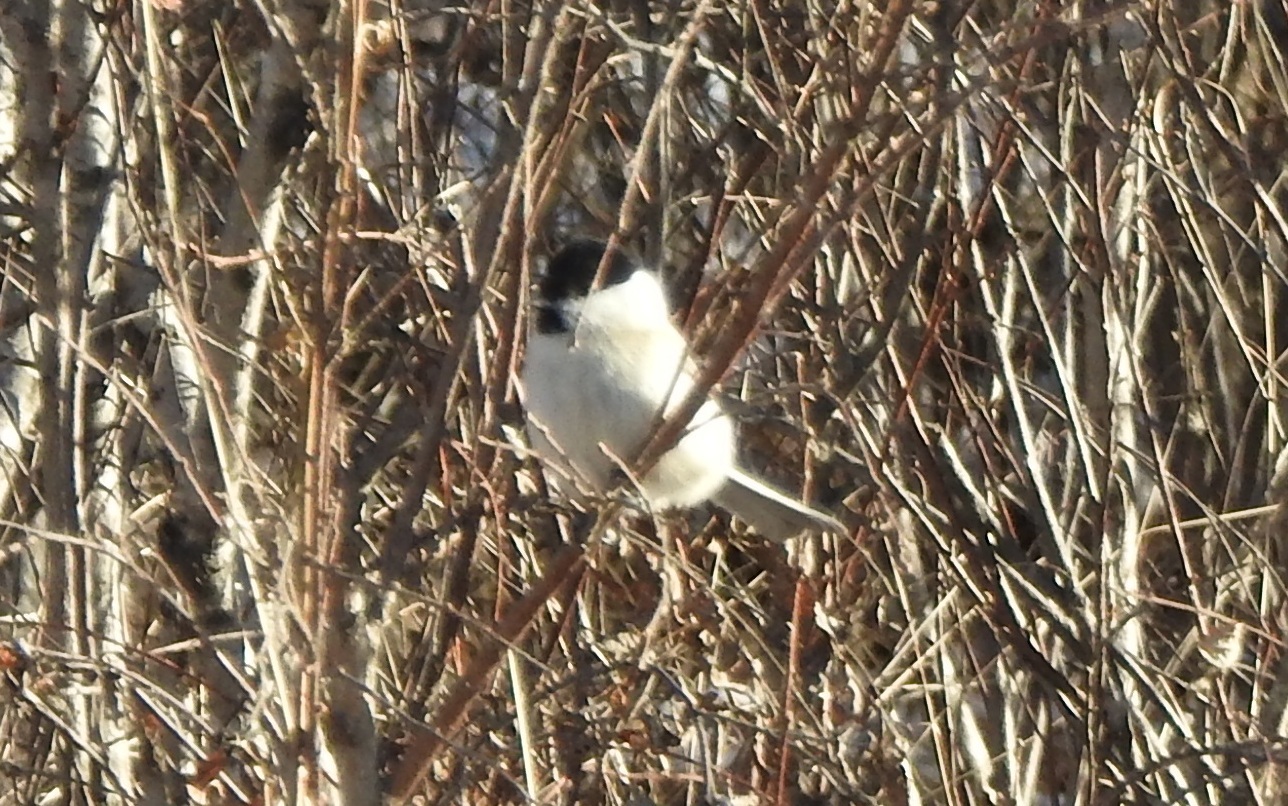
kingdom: Animalia
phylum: Chordata
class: Aves
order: Passeriformes
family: Paridae
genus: Poecile
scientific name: Poecile palustris
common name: Marsh tit
